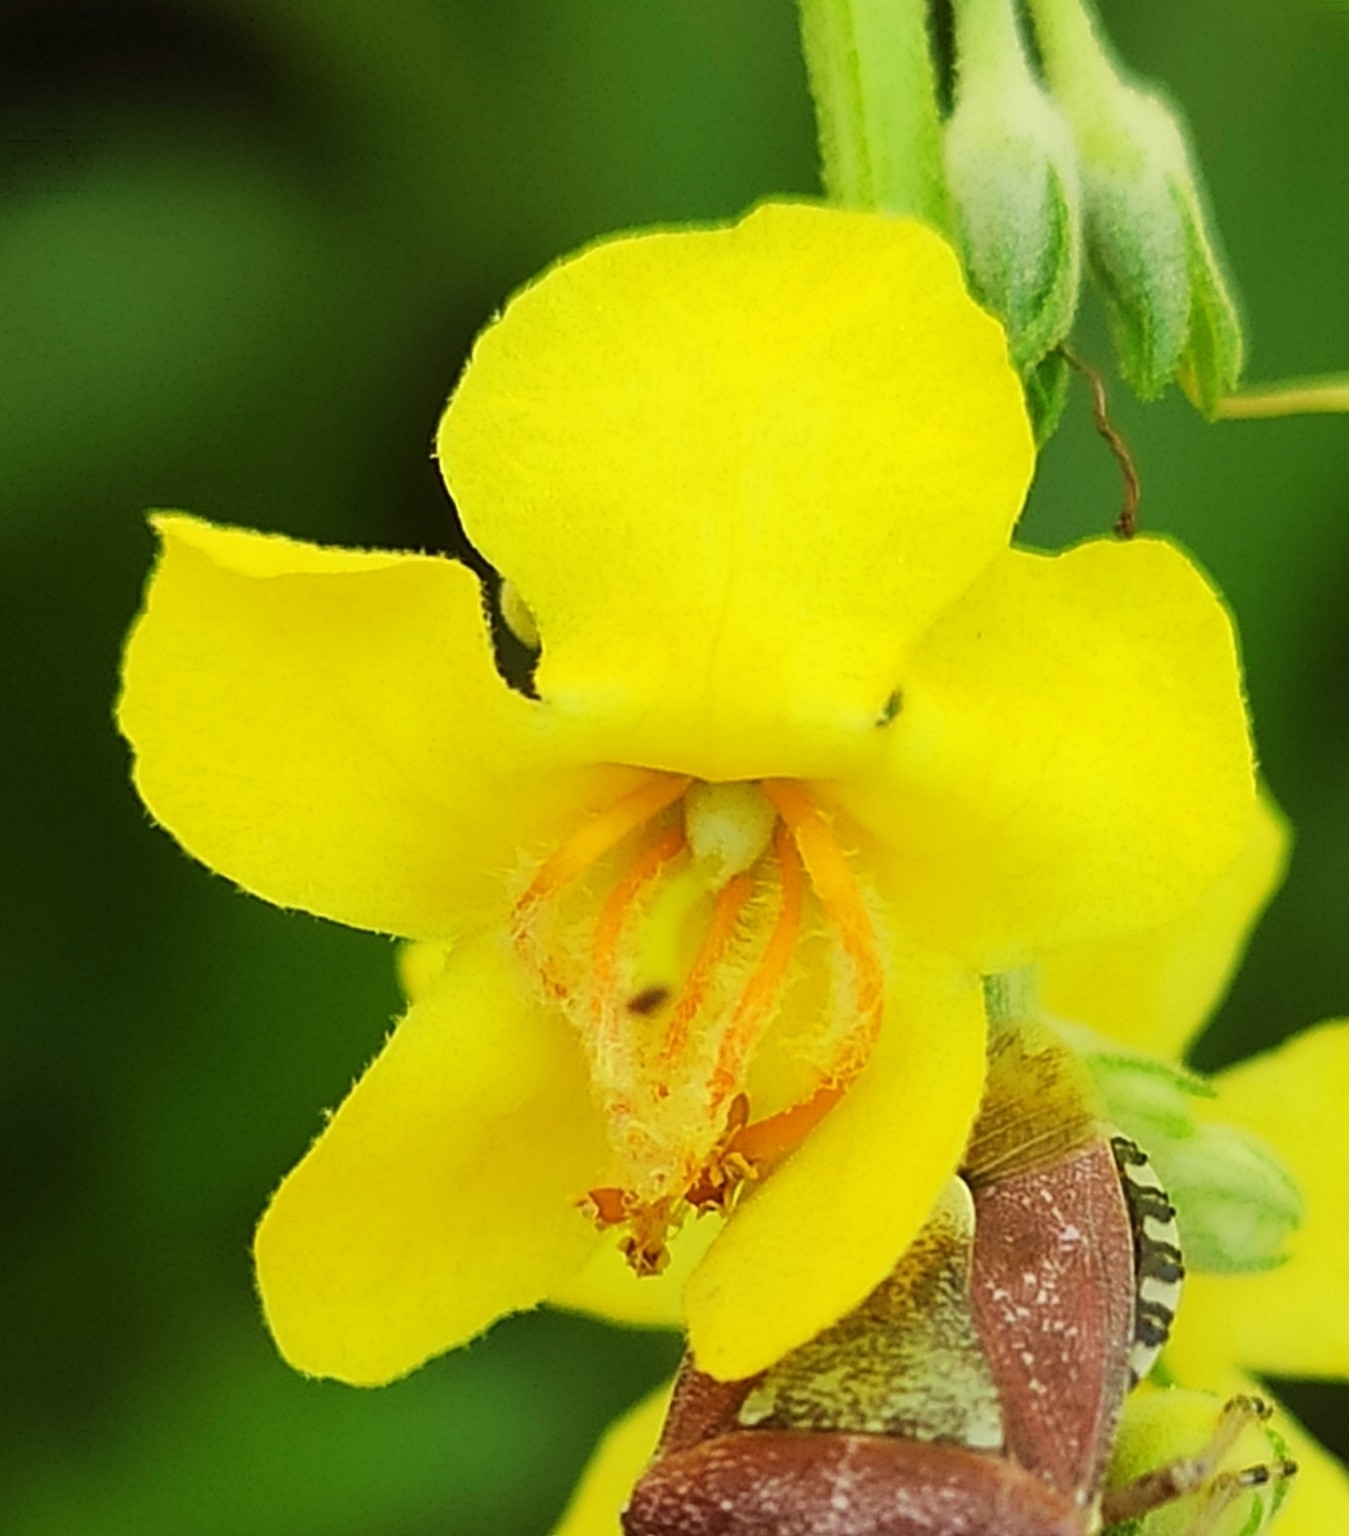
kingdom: Plantae
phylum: Tracheophyta
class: Magnoliopsida
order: Lamiales
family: Scrophulariaceae
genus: Verbascum
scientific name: Verbascum lychnitis
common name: White mullein
